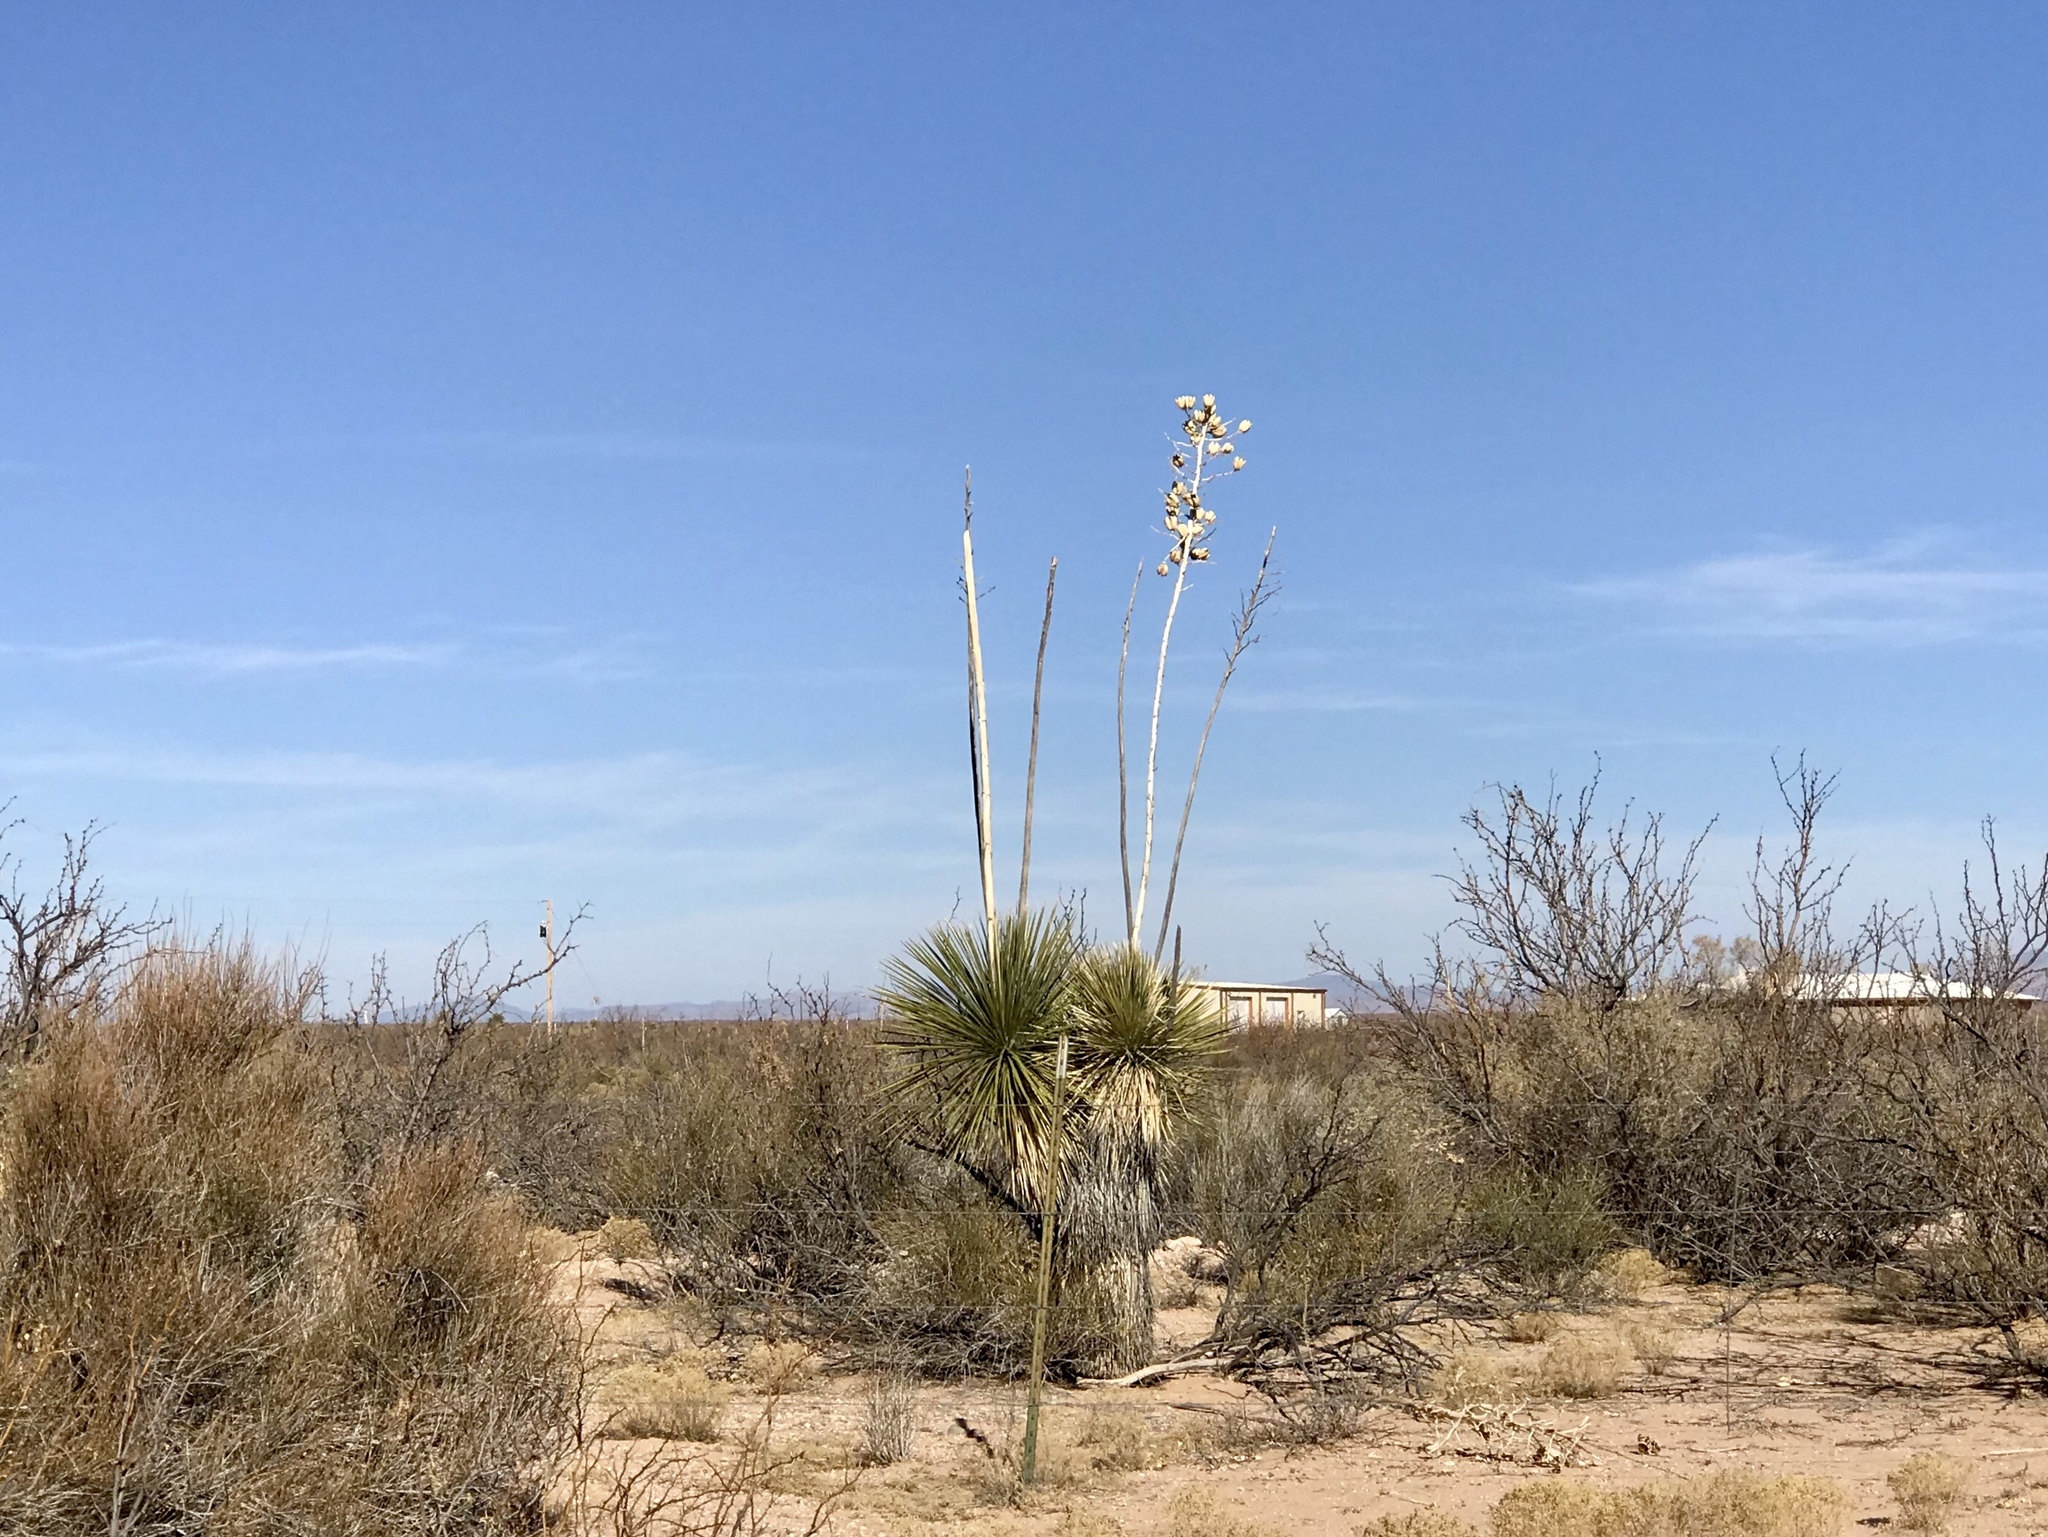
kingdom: Plantae
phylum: Tracheophyta
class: Liliopsida
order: Asparagales
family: Asparagaceae
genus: Yucca
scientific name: Yucca elata
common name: Palmella
